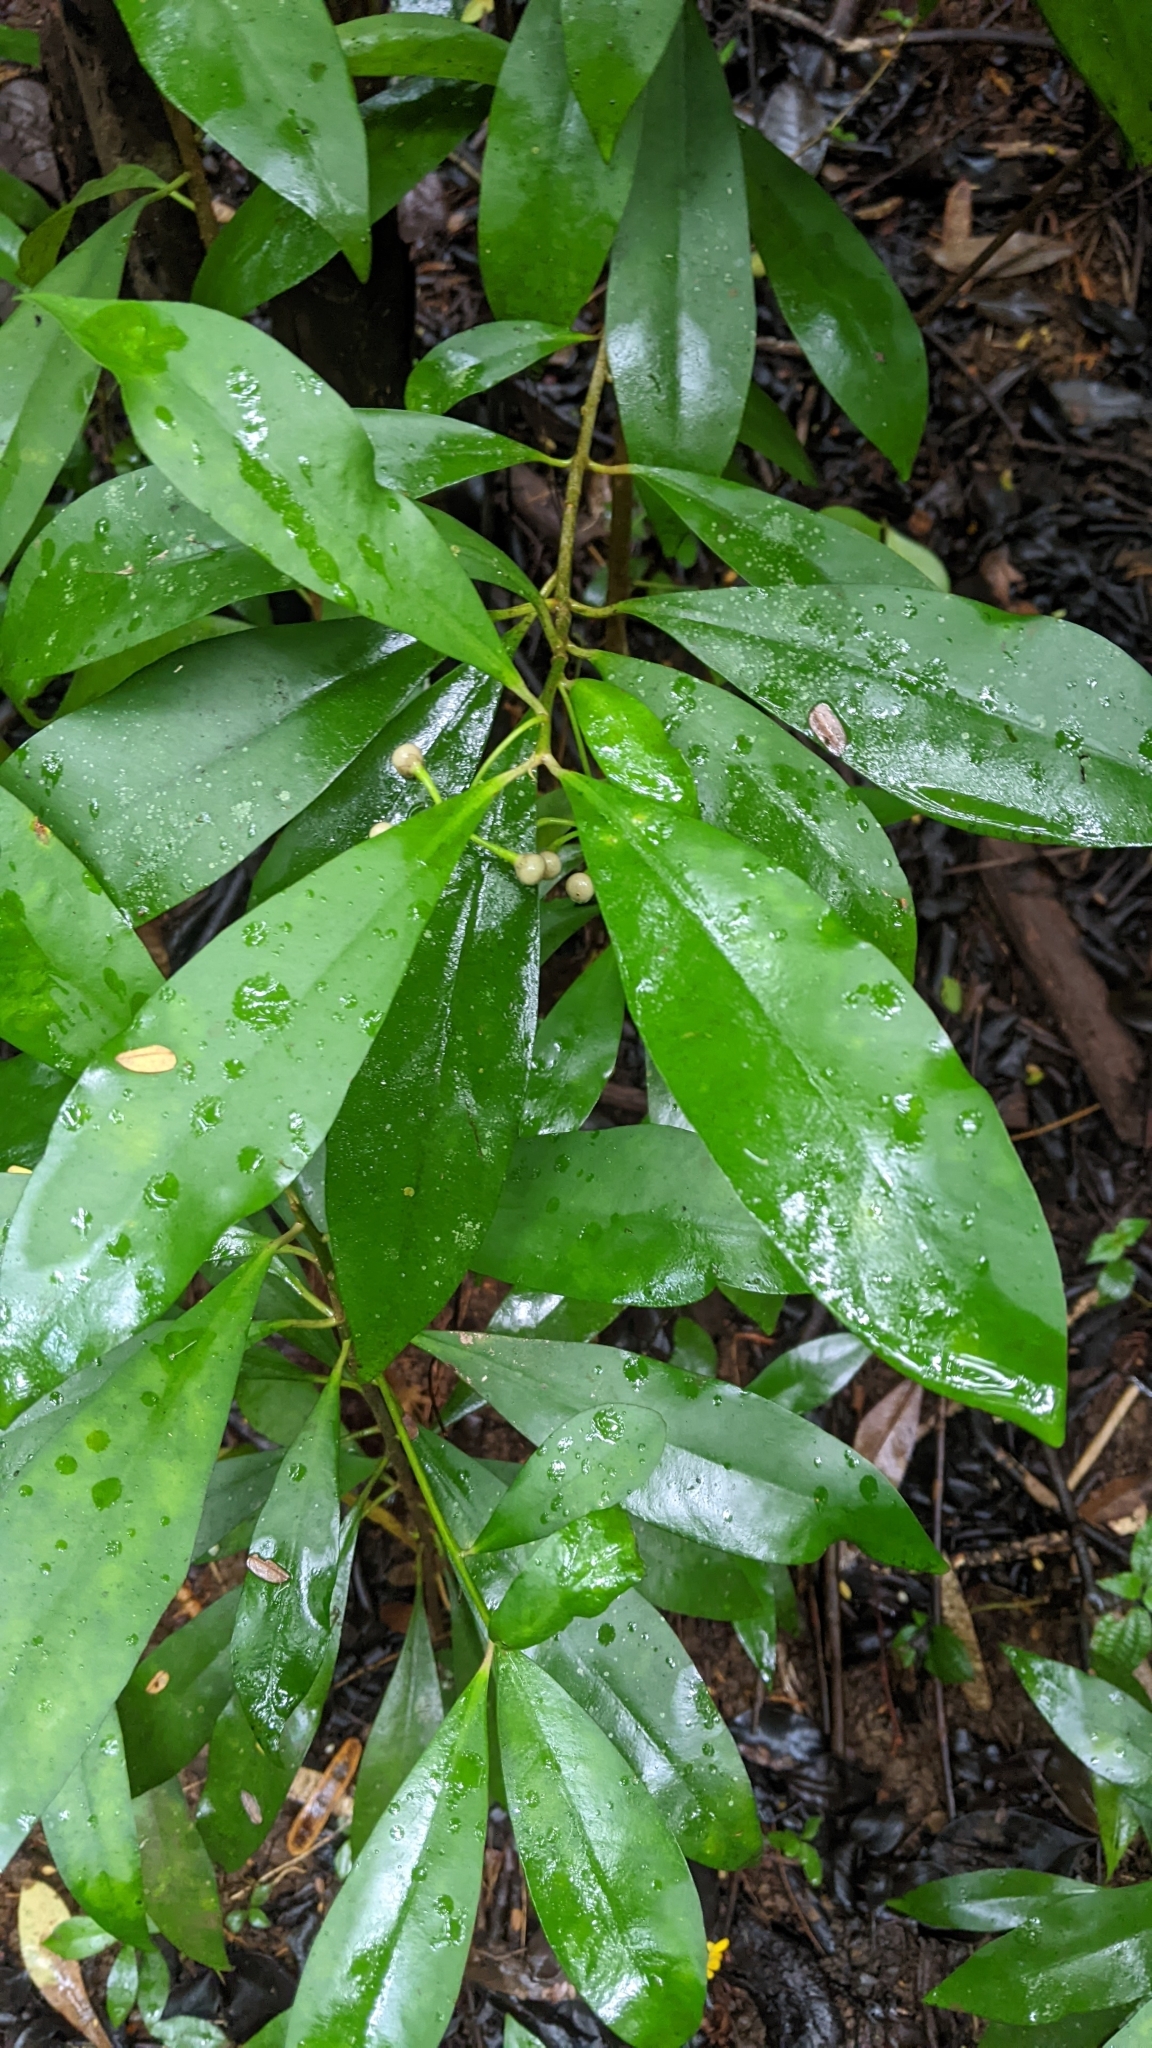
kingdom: Plantae
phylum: Tracheophyta
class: Magnoliopsida
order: Ericales
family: Primulaceae
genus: Ardisia
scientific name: Ardisia elliptica
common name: Shoebutton
